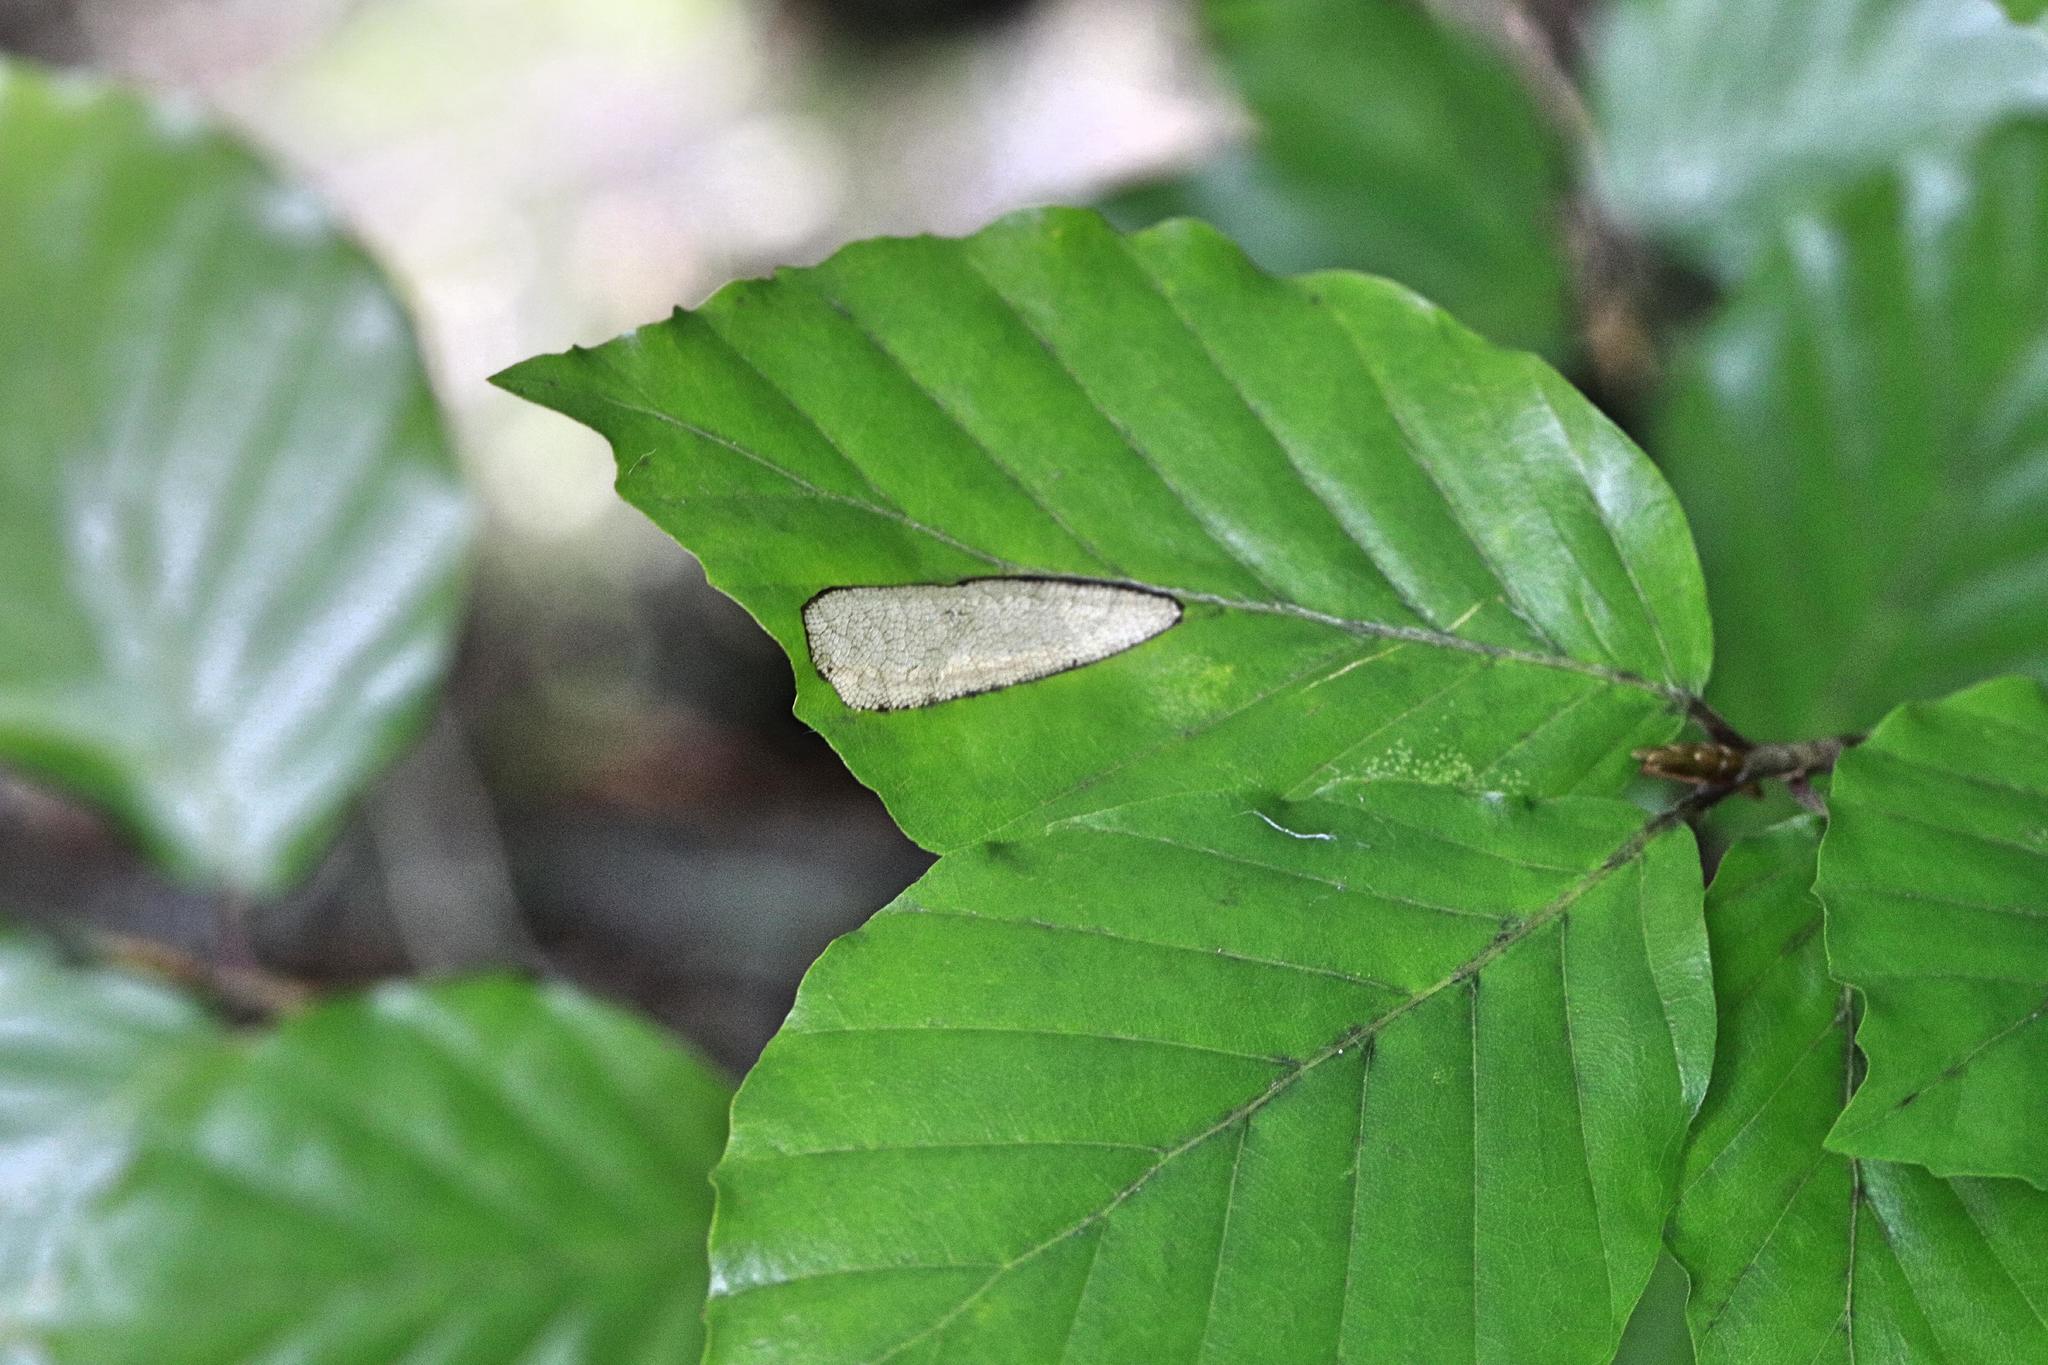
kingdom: Plantae
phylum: Tracheophyta
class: Magnoliopsida
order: Fagales
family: Fagaceae
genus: Fagus
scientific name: Fagus sylvatica
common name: Beech
